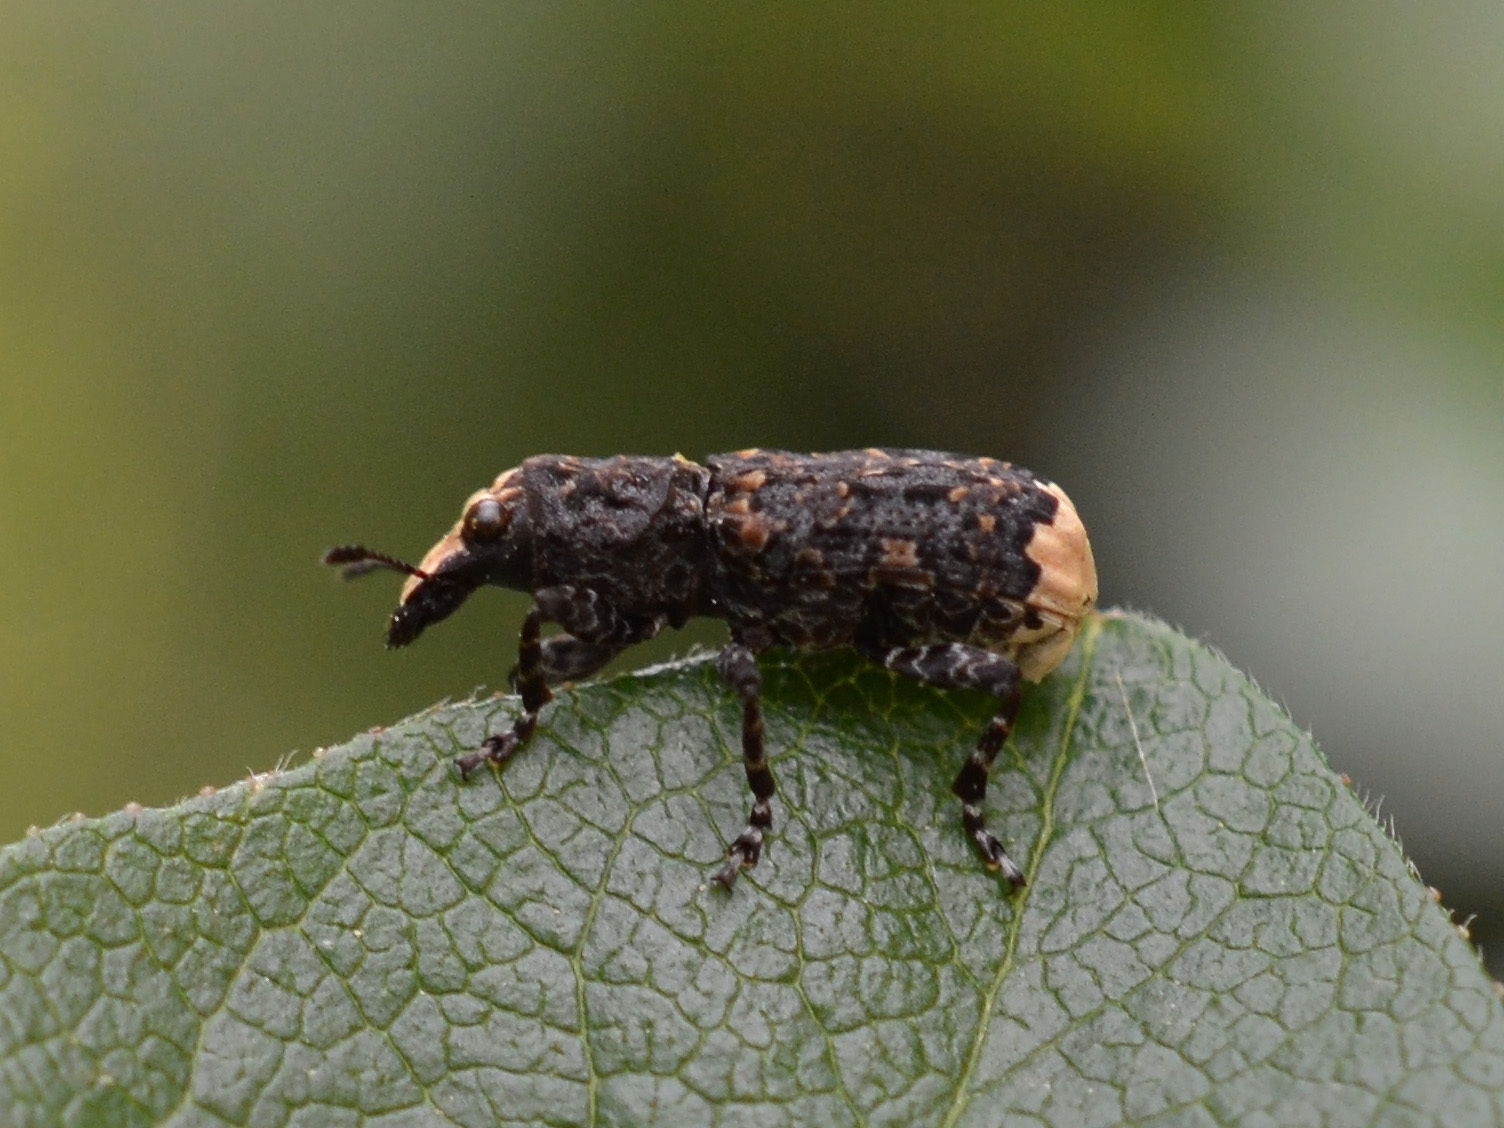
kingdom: Animalia
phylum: Arthropoda
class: Insecta
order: Coleoptera
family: Anthribidae
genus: Platyrhinus
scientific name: Platyrhinus resinosus
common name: Cramp-ball fungus weevil
